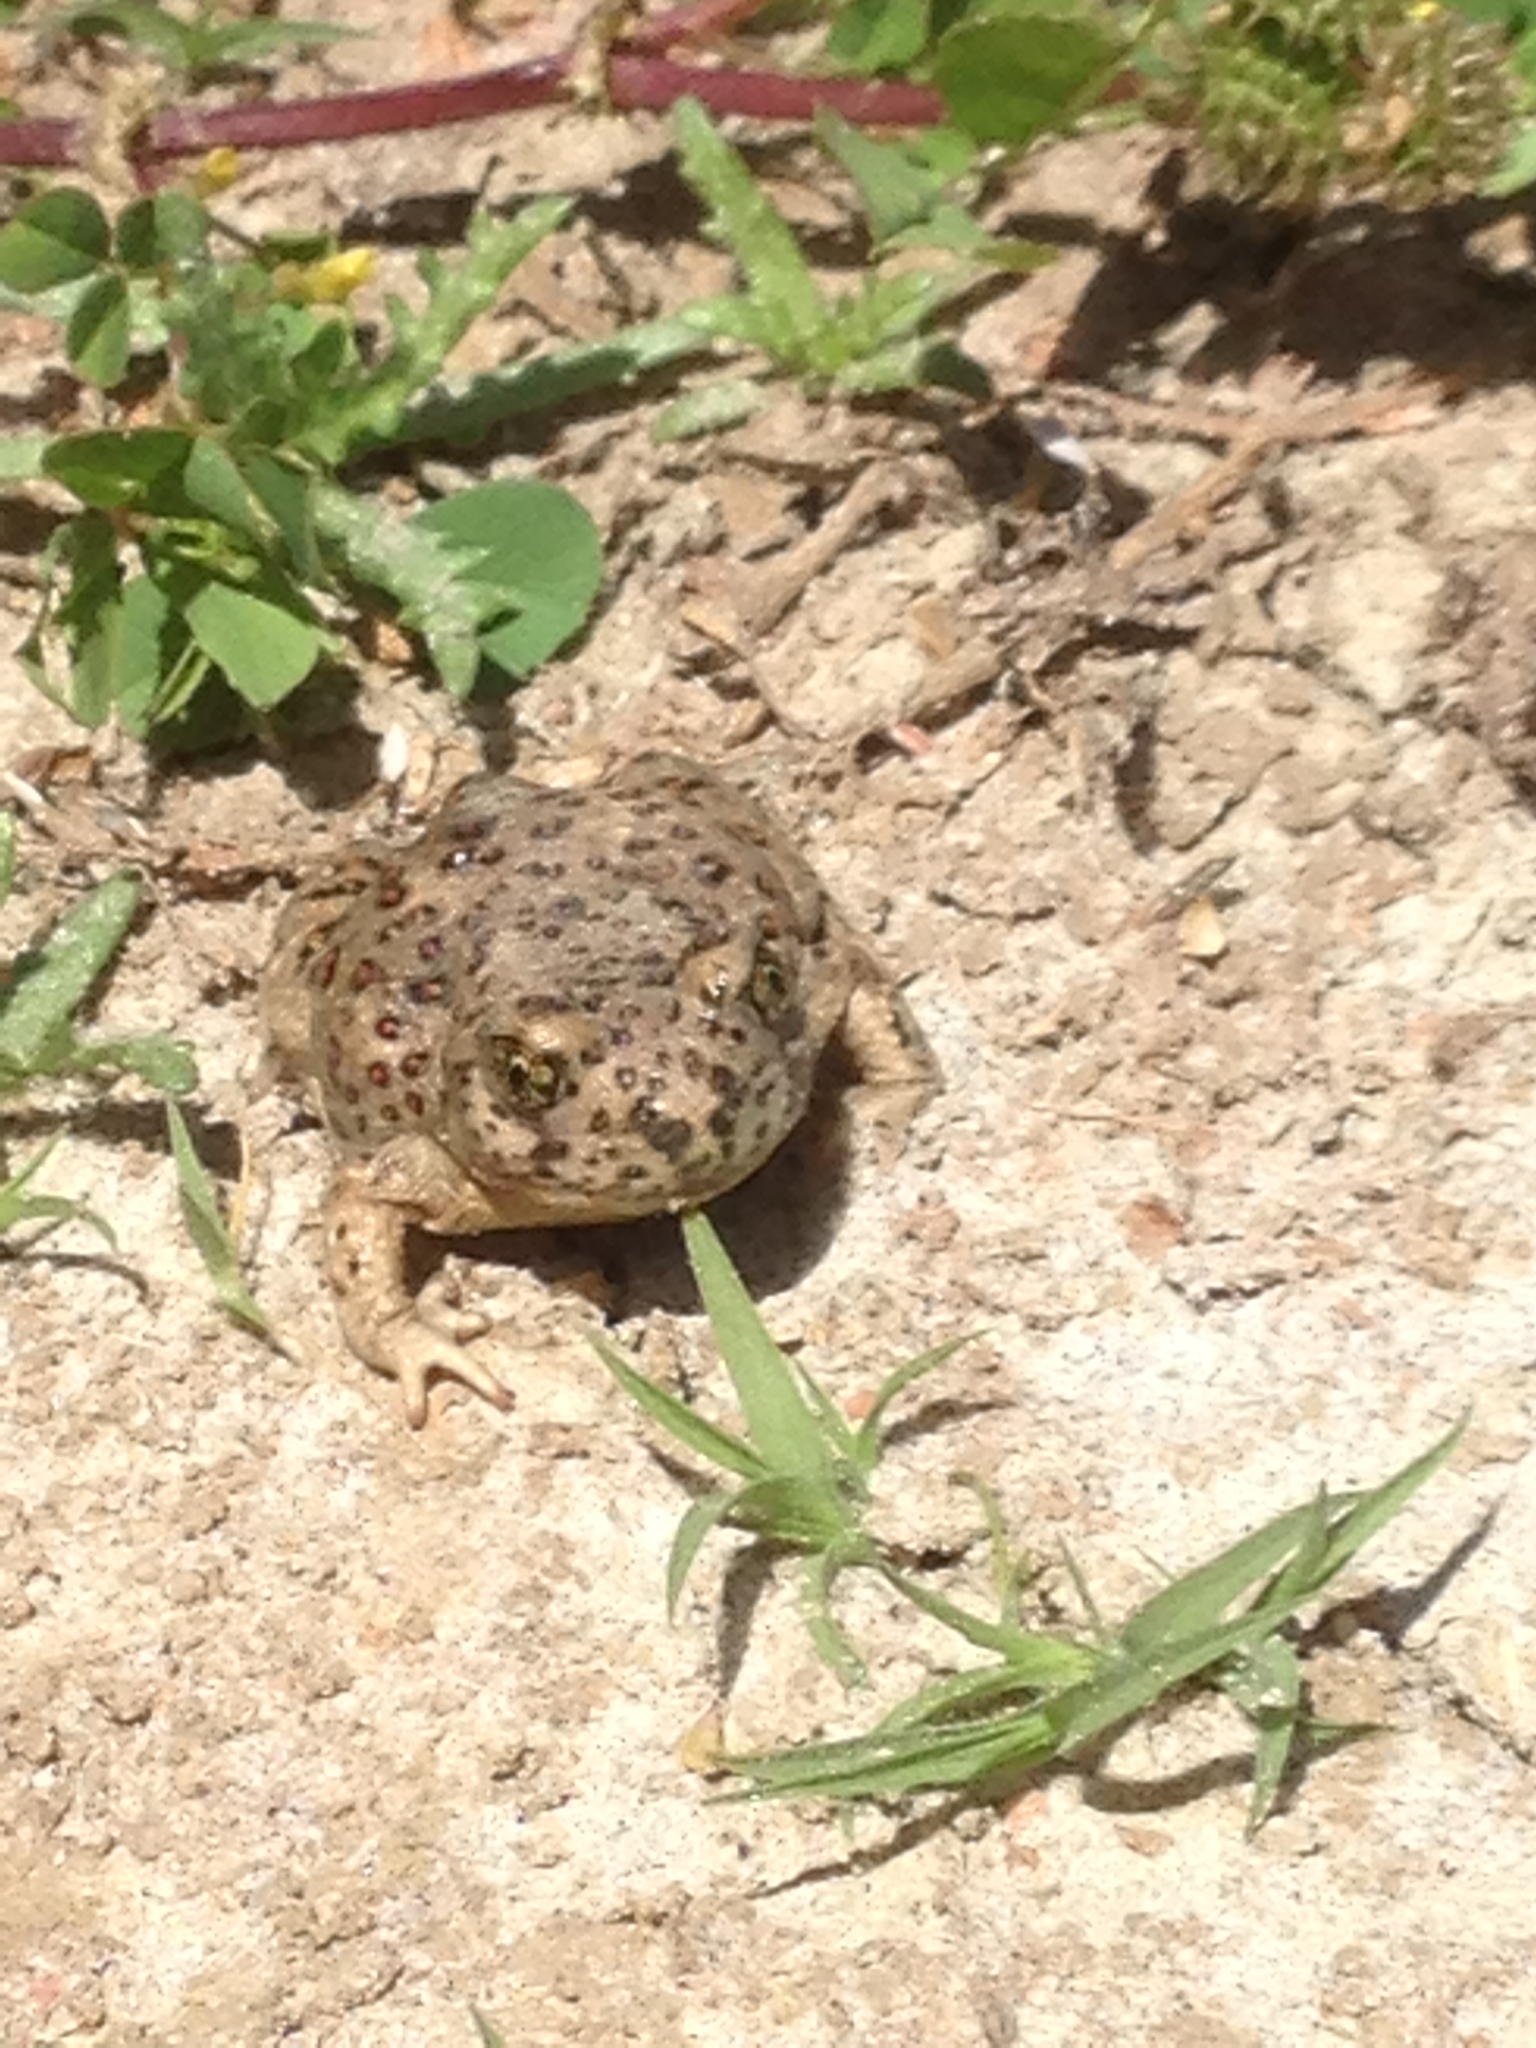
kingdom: Animalia
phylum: Chordata
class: Amphibia
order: Anura
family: Scaphiopodidae
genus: Spea
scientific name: Spea hammondii
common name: Western spadefoot toad
